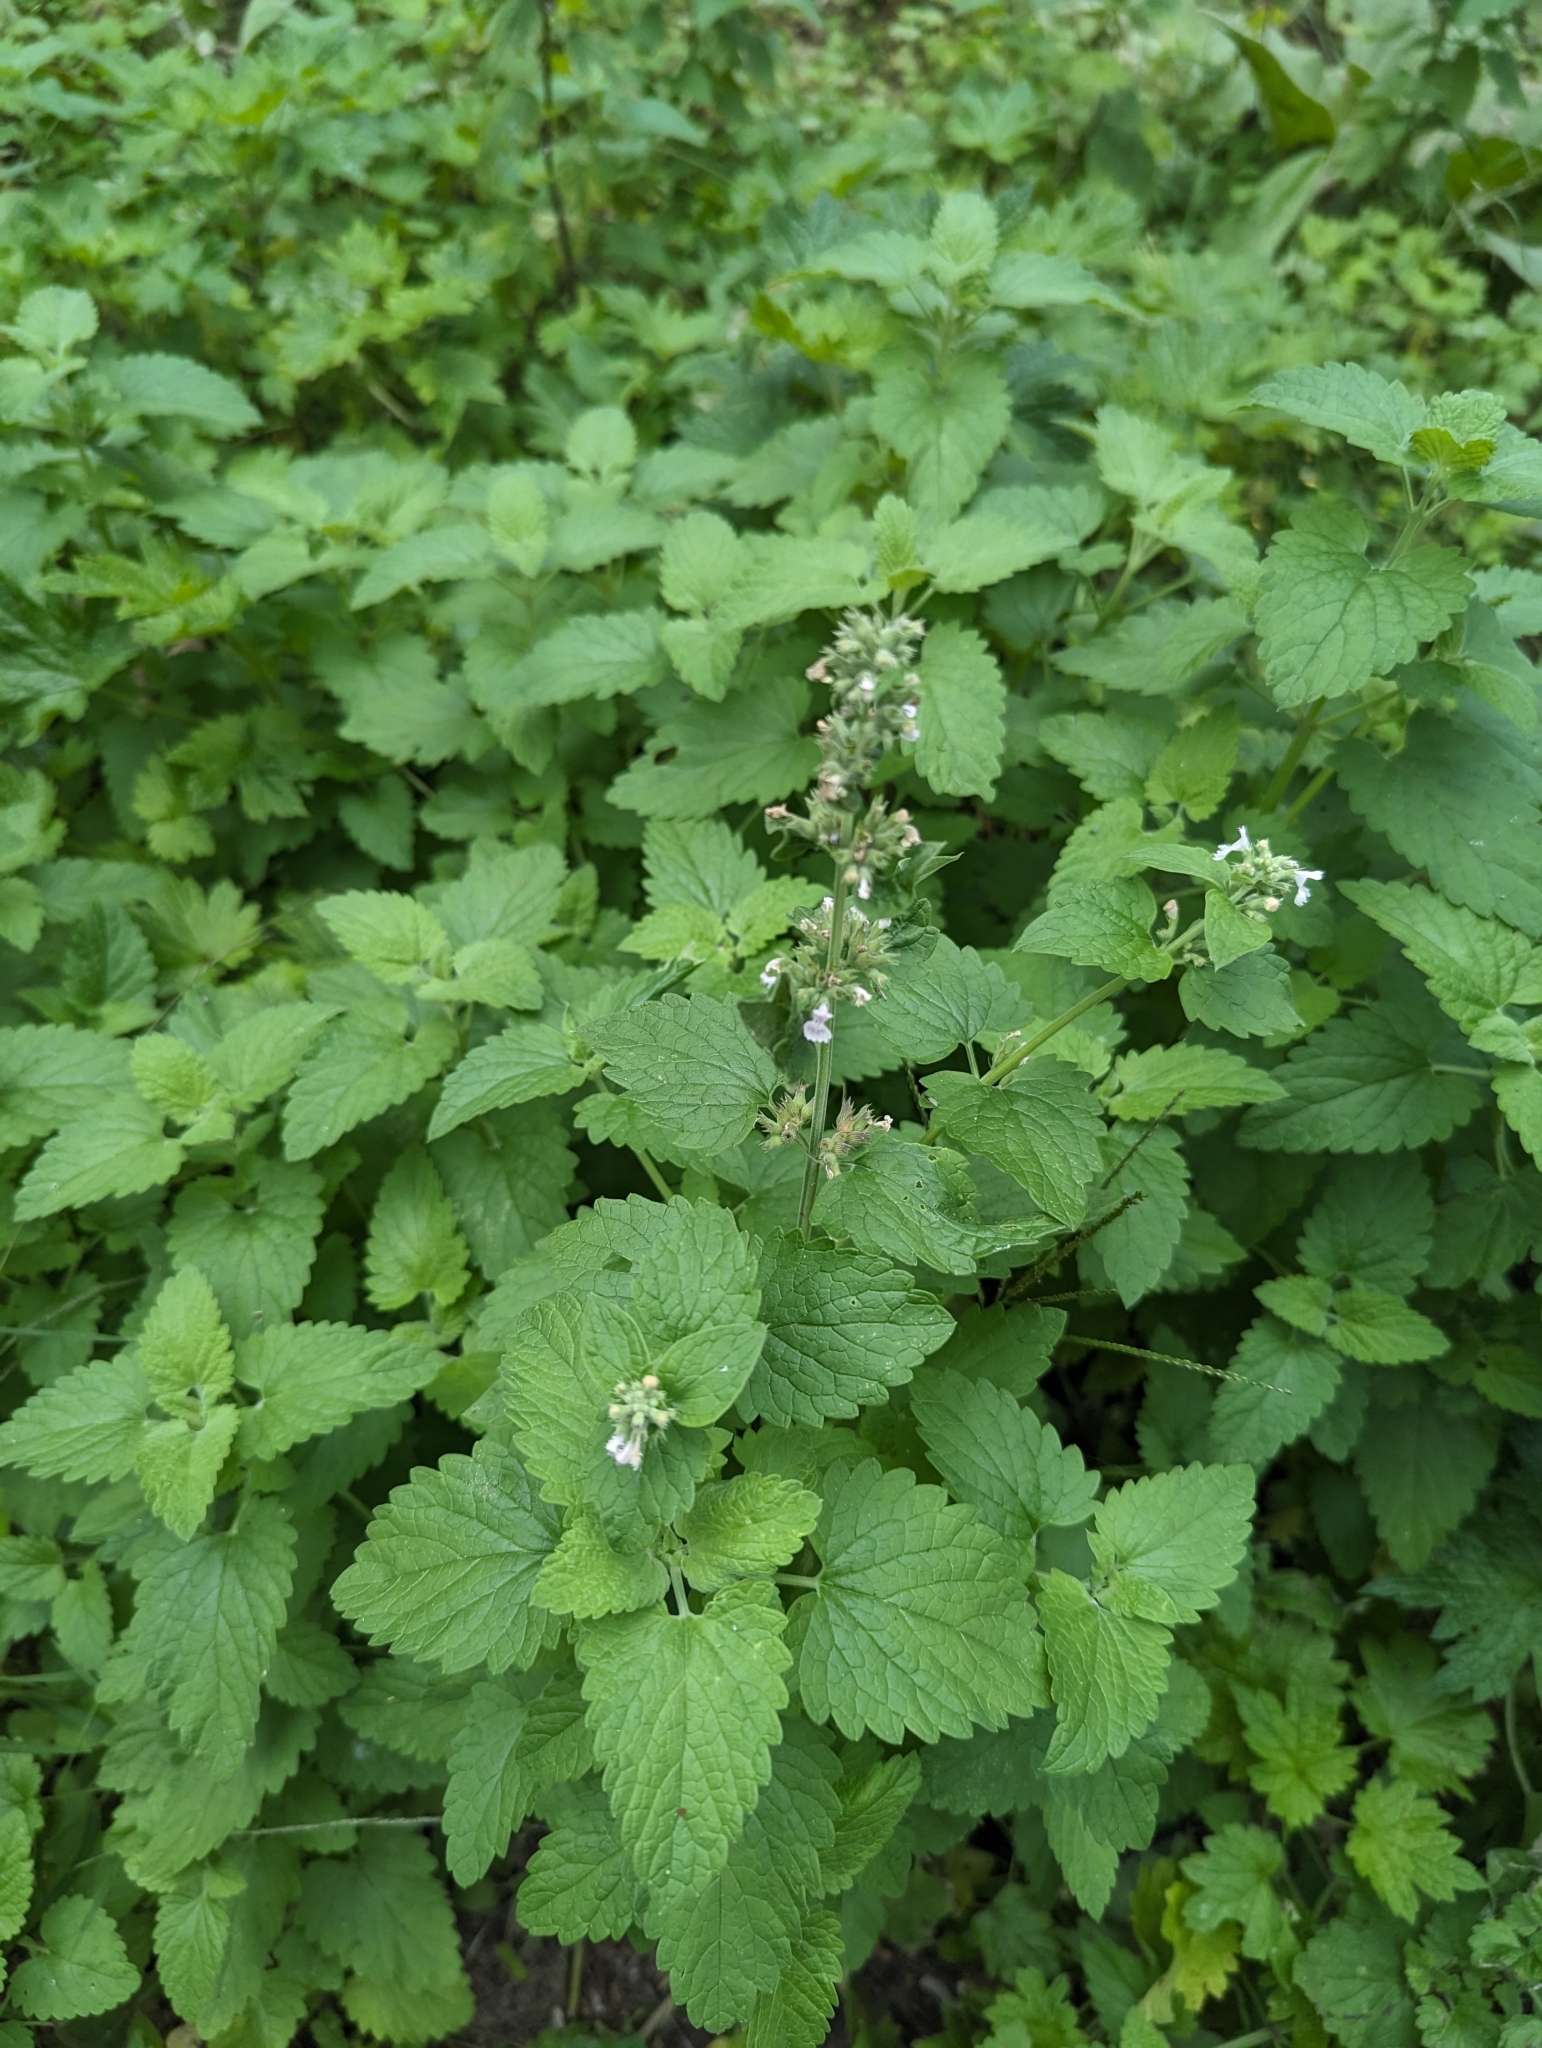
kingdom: Plantae
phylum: Tracheophyta
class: Magnoliopsida
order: Lamiales
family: Lamiaceae
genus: Nepeta
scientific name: Nepeta cataria
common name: Catnip
